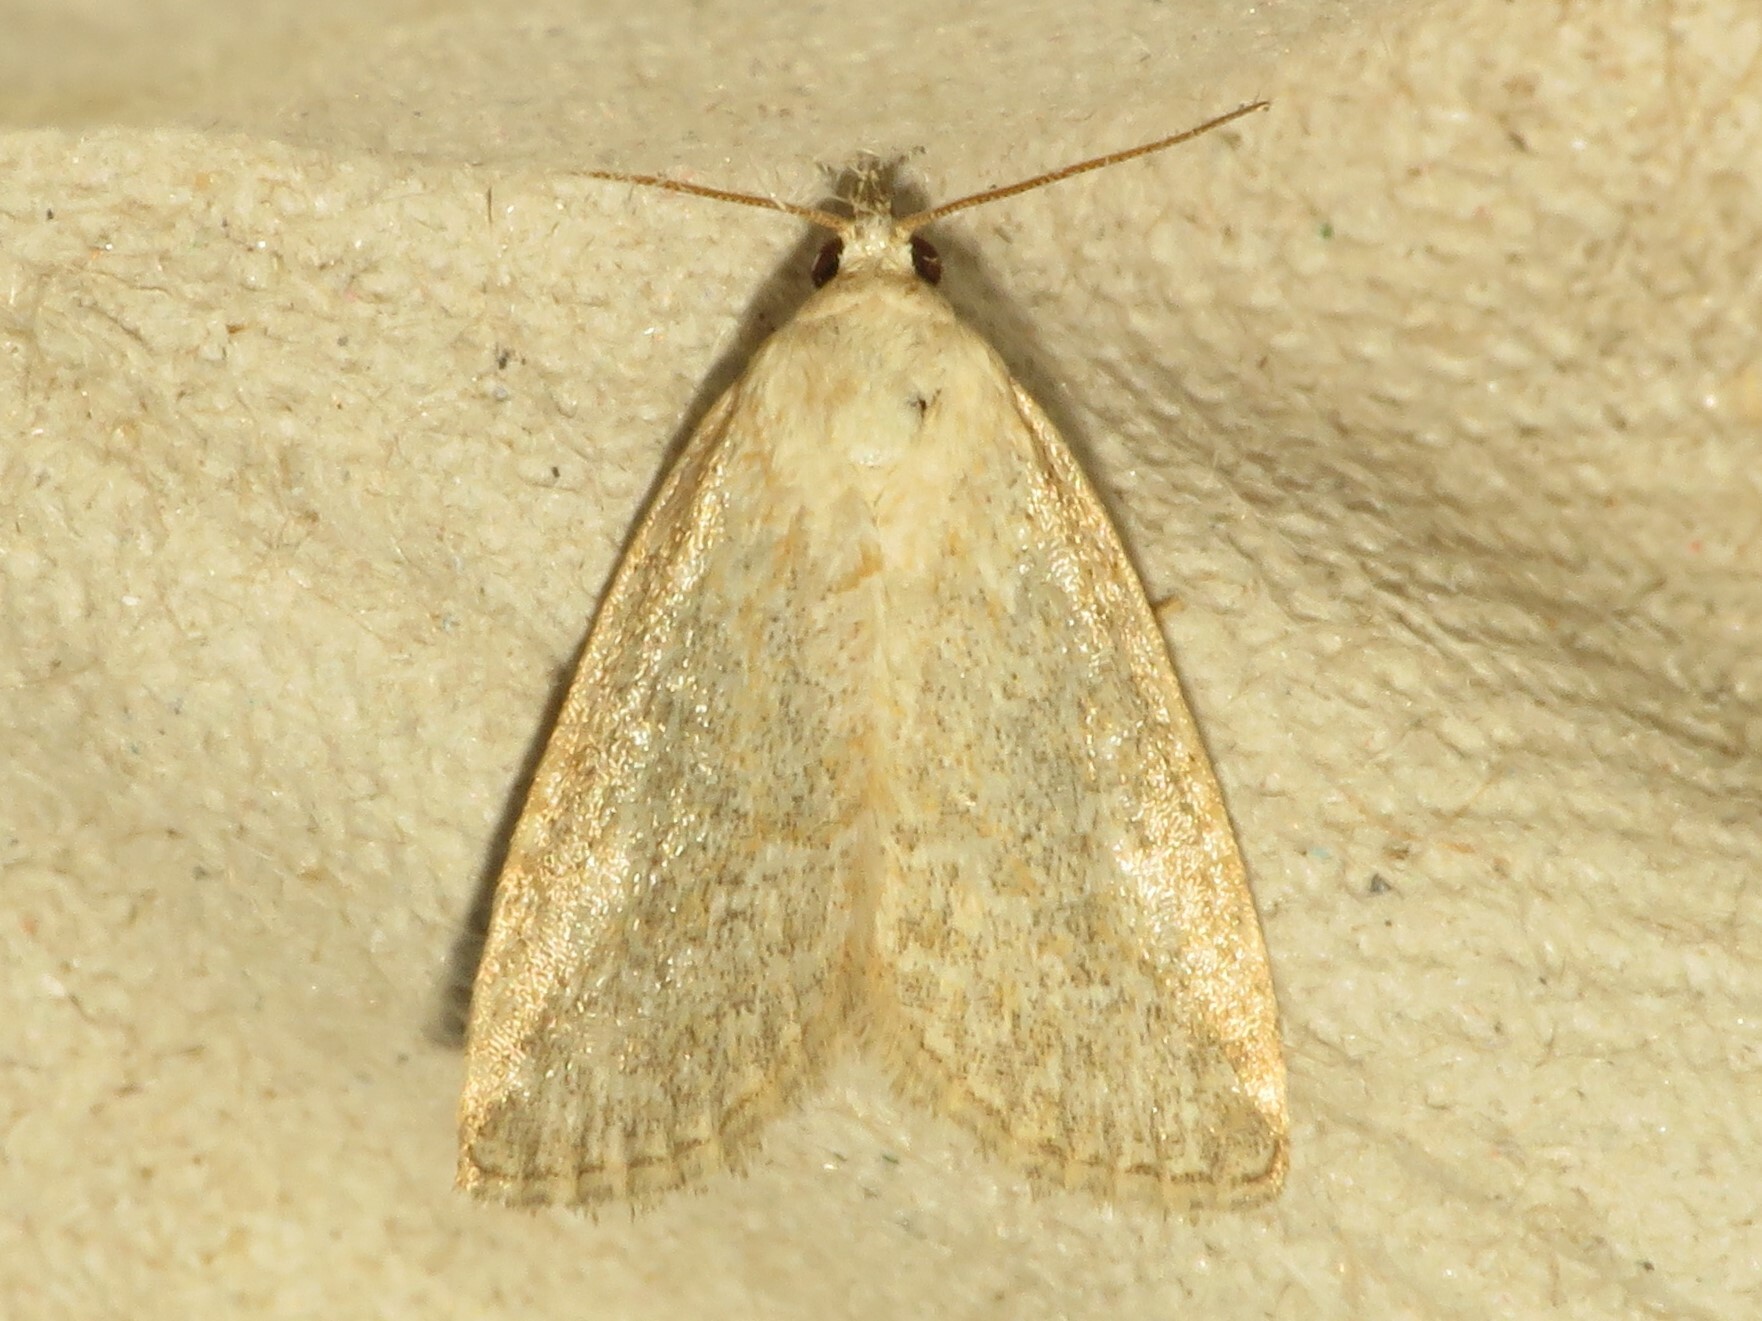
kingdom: Animalia
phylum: Arthropoda
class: Insecta
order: Lepidoptera
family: Noctuidae
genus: Protodeltote
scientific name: Protodeltote albidula
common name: Pale glyph
